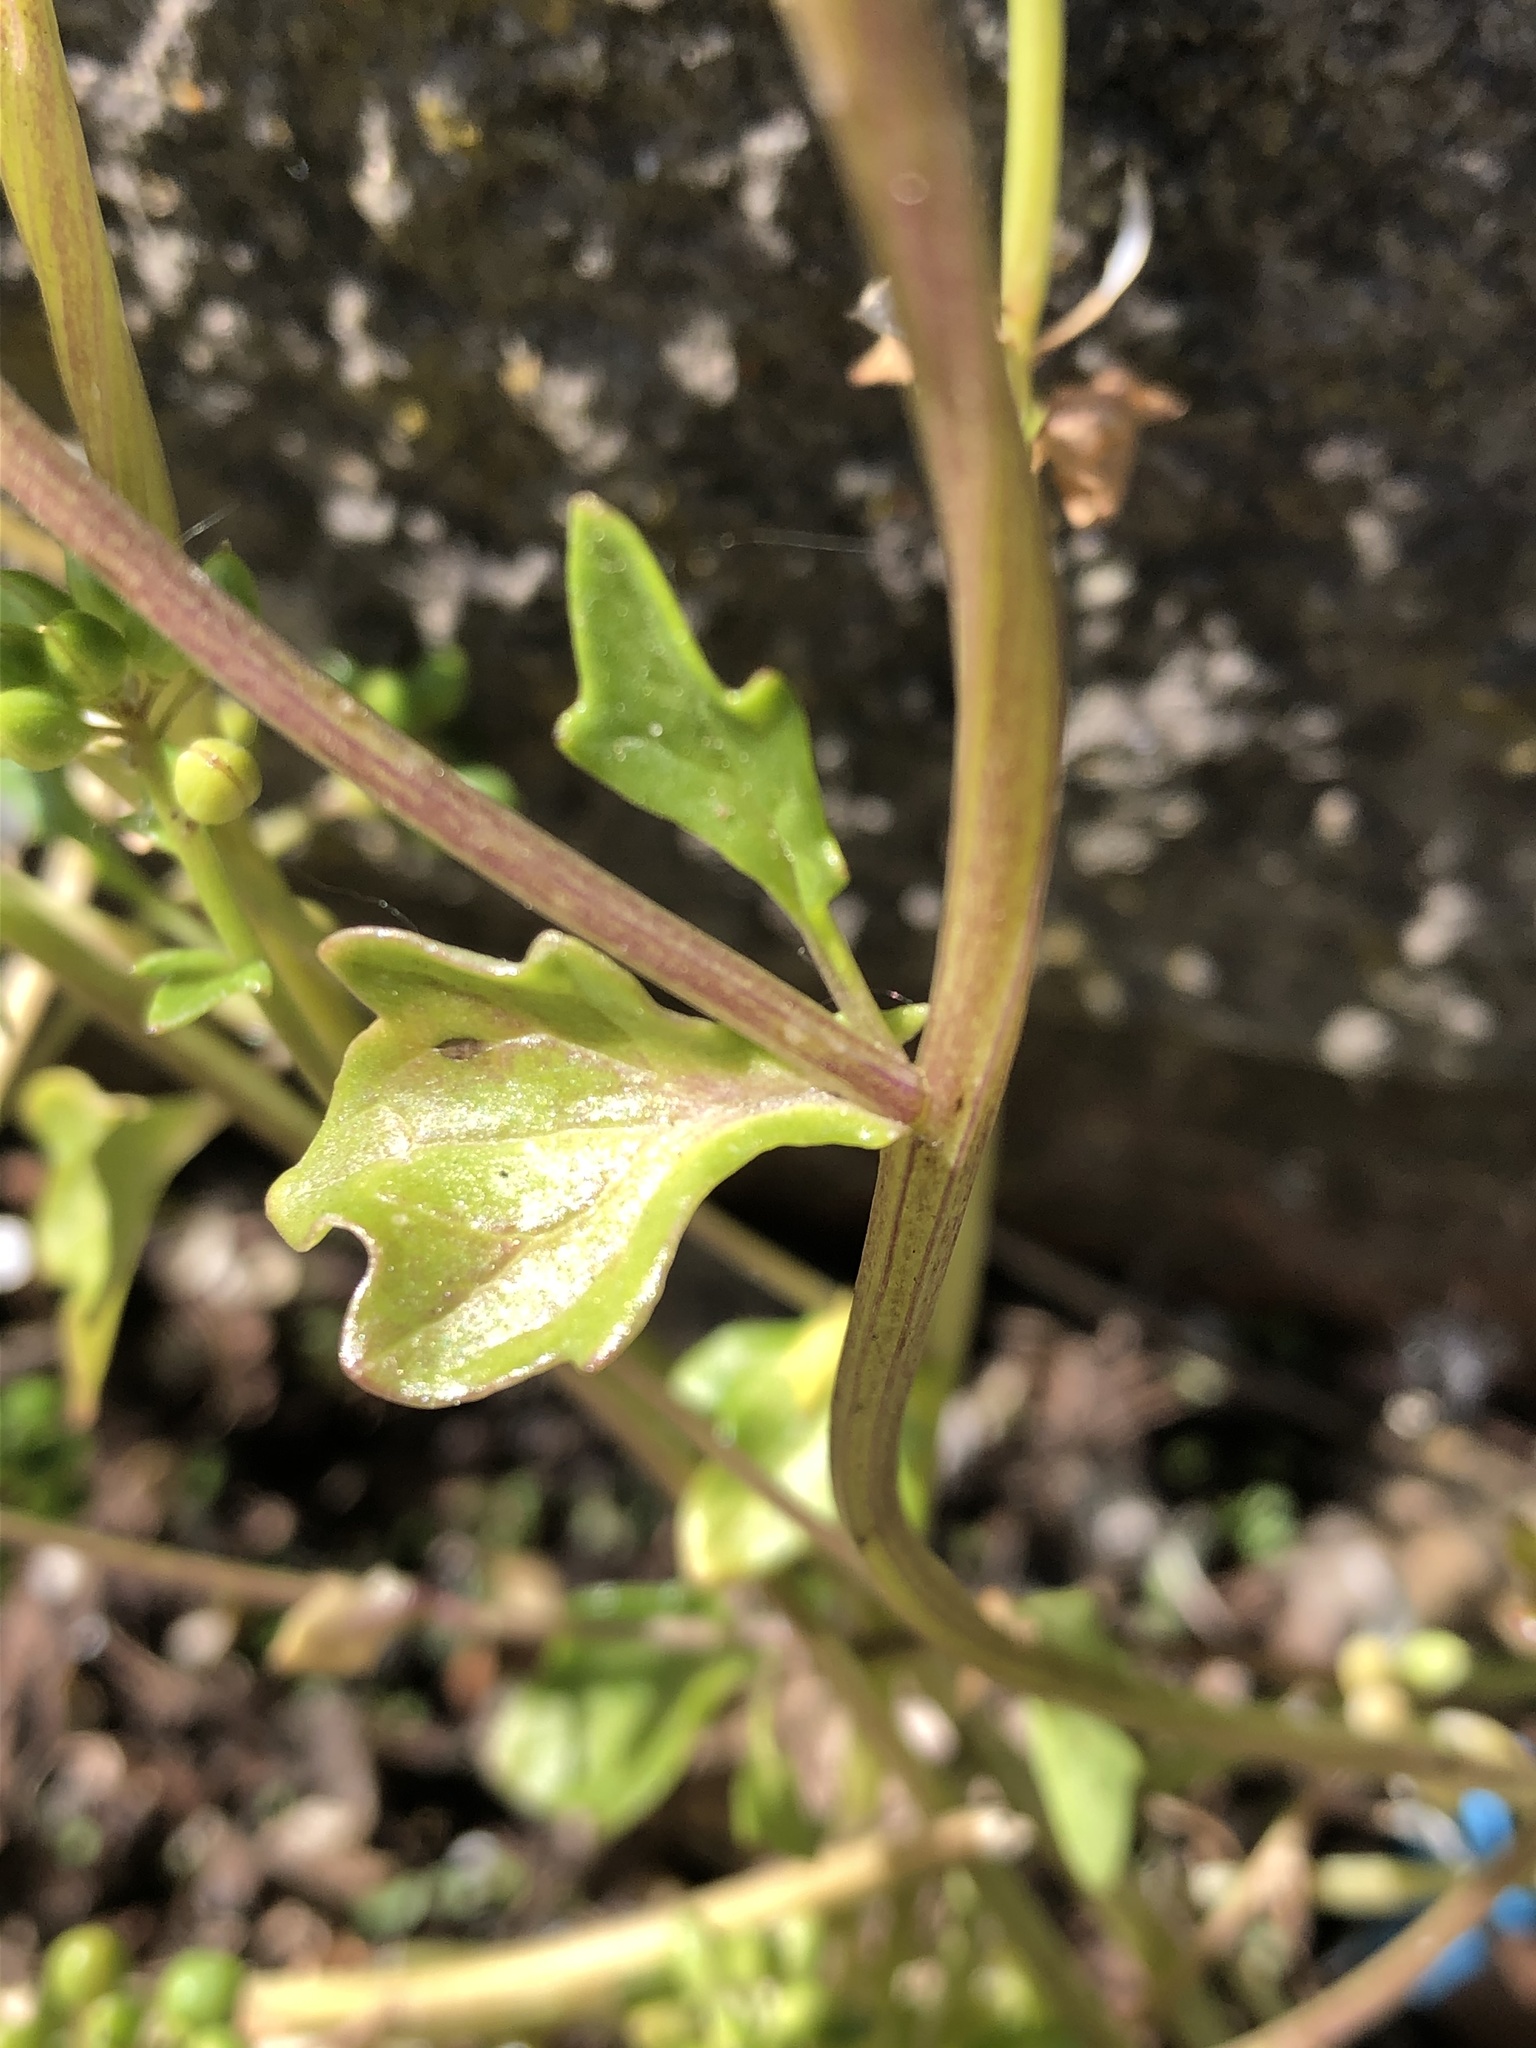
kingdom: Plantae
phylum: Tracheophyta
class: Magnoliopsida
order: Brassicales
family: Brassicaceae
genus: Cochlearia
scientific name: Cochlearia danica
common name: Early scurvygrass
